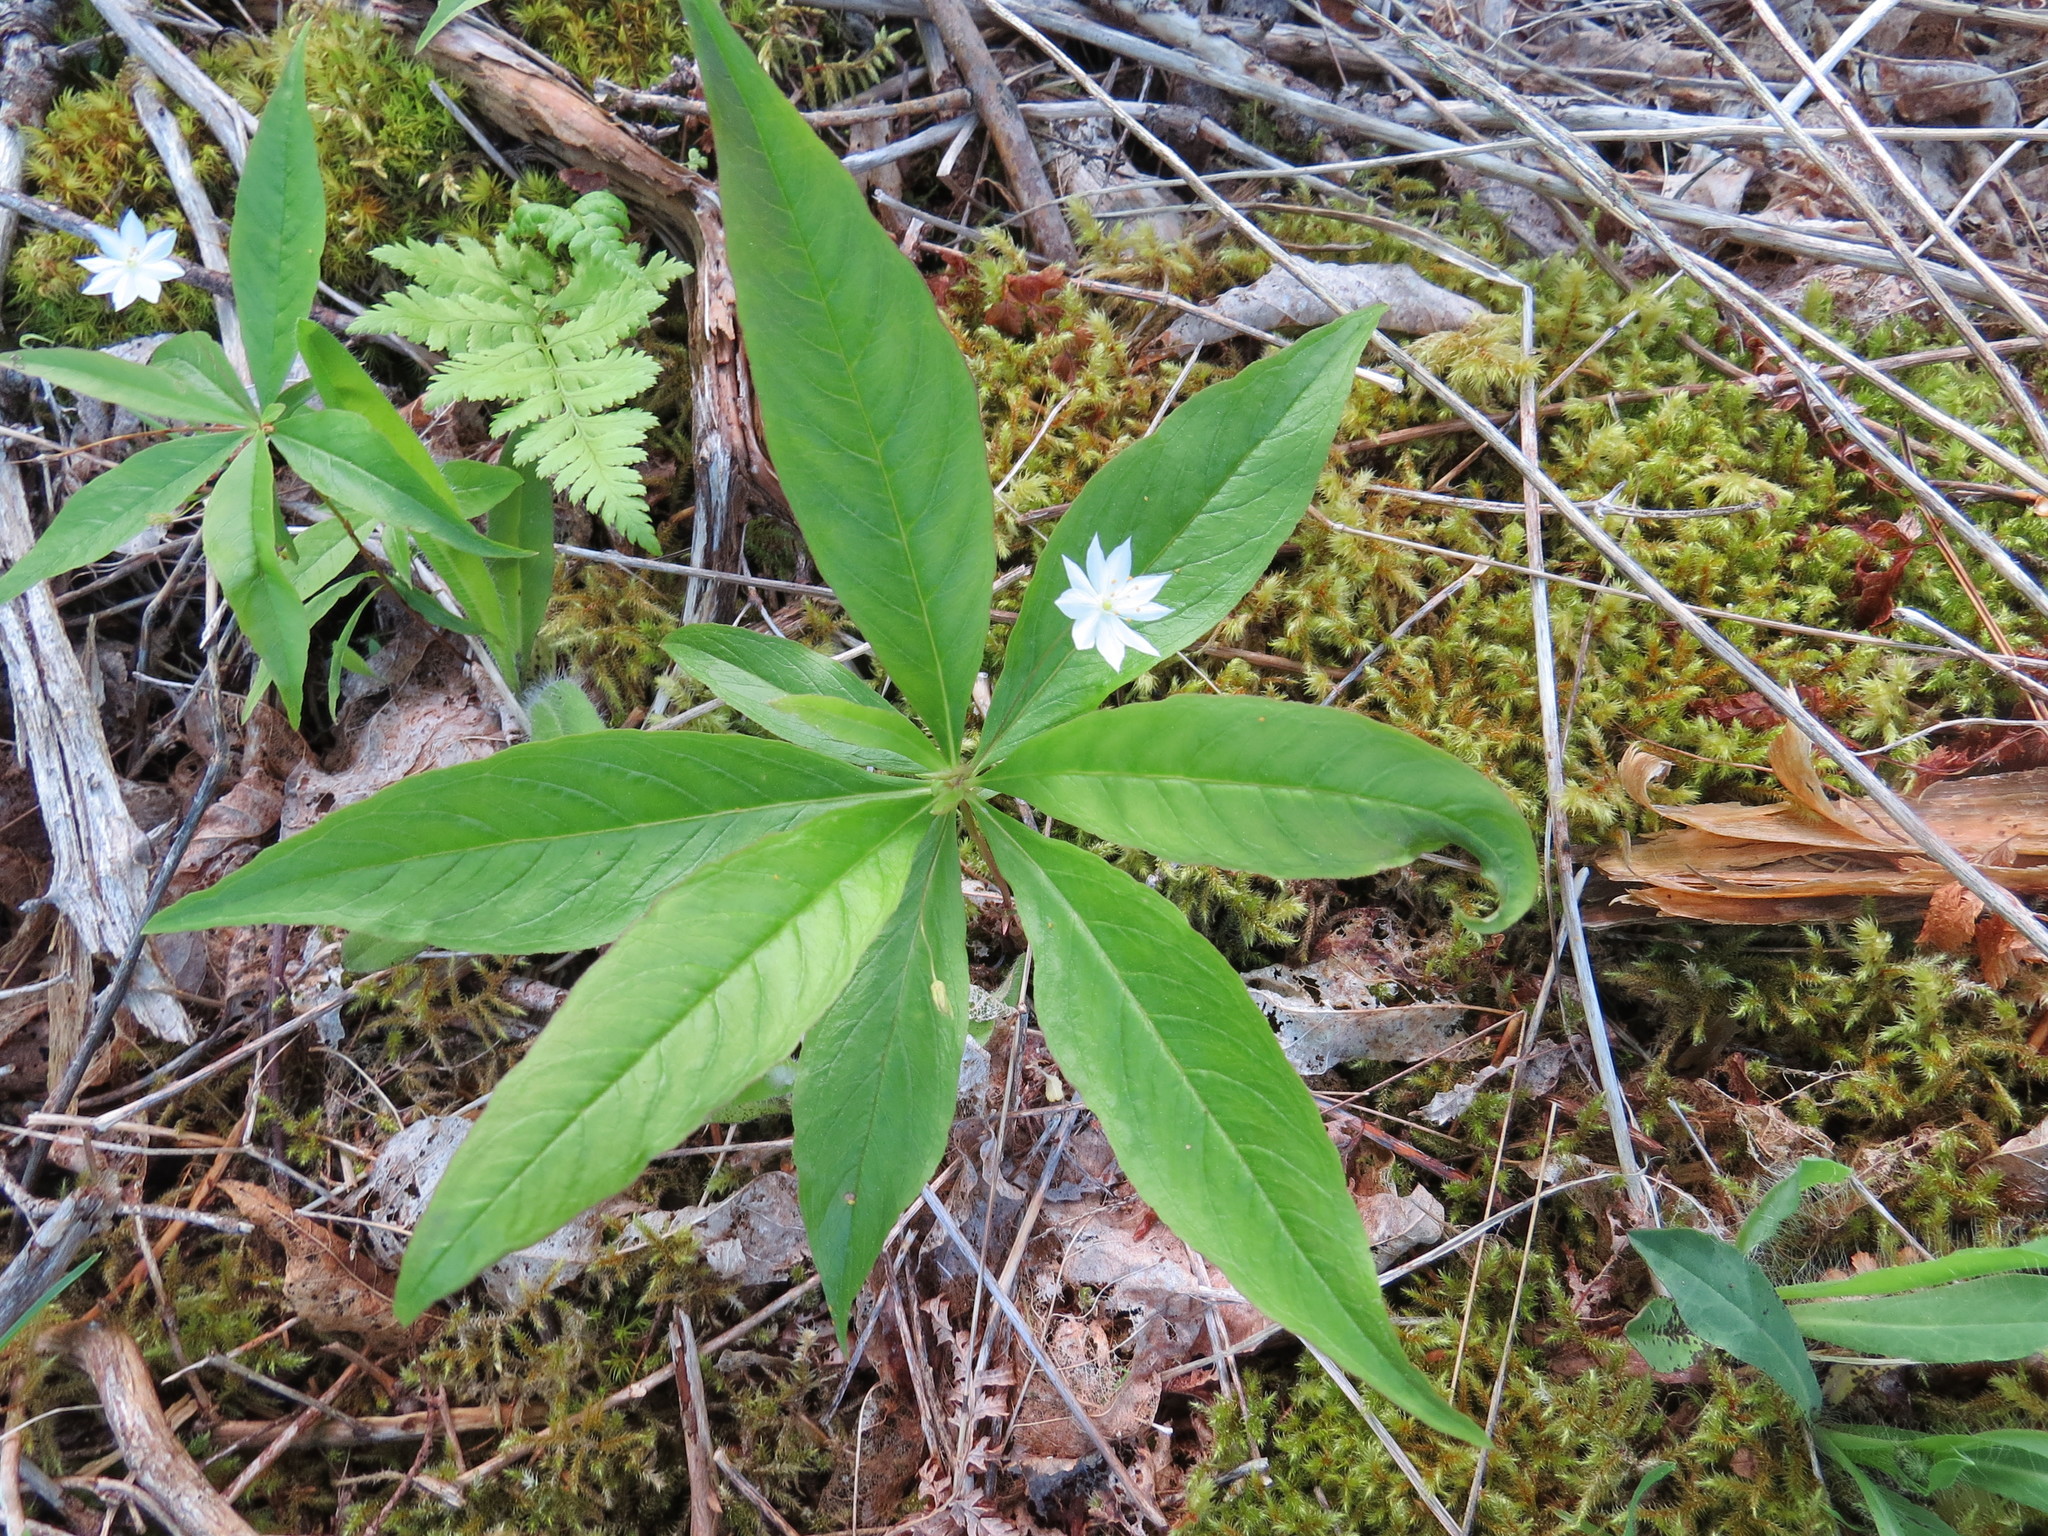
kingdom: Plantae
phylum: Tracheophyta
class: Magnoliopsida
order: Ericales
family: Primulaceae
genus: Lysimachia
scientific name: Lysimachia borealis
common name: American starflower
